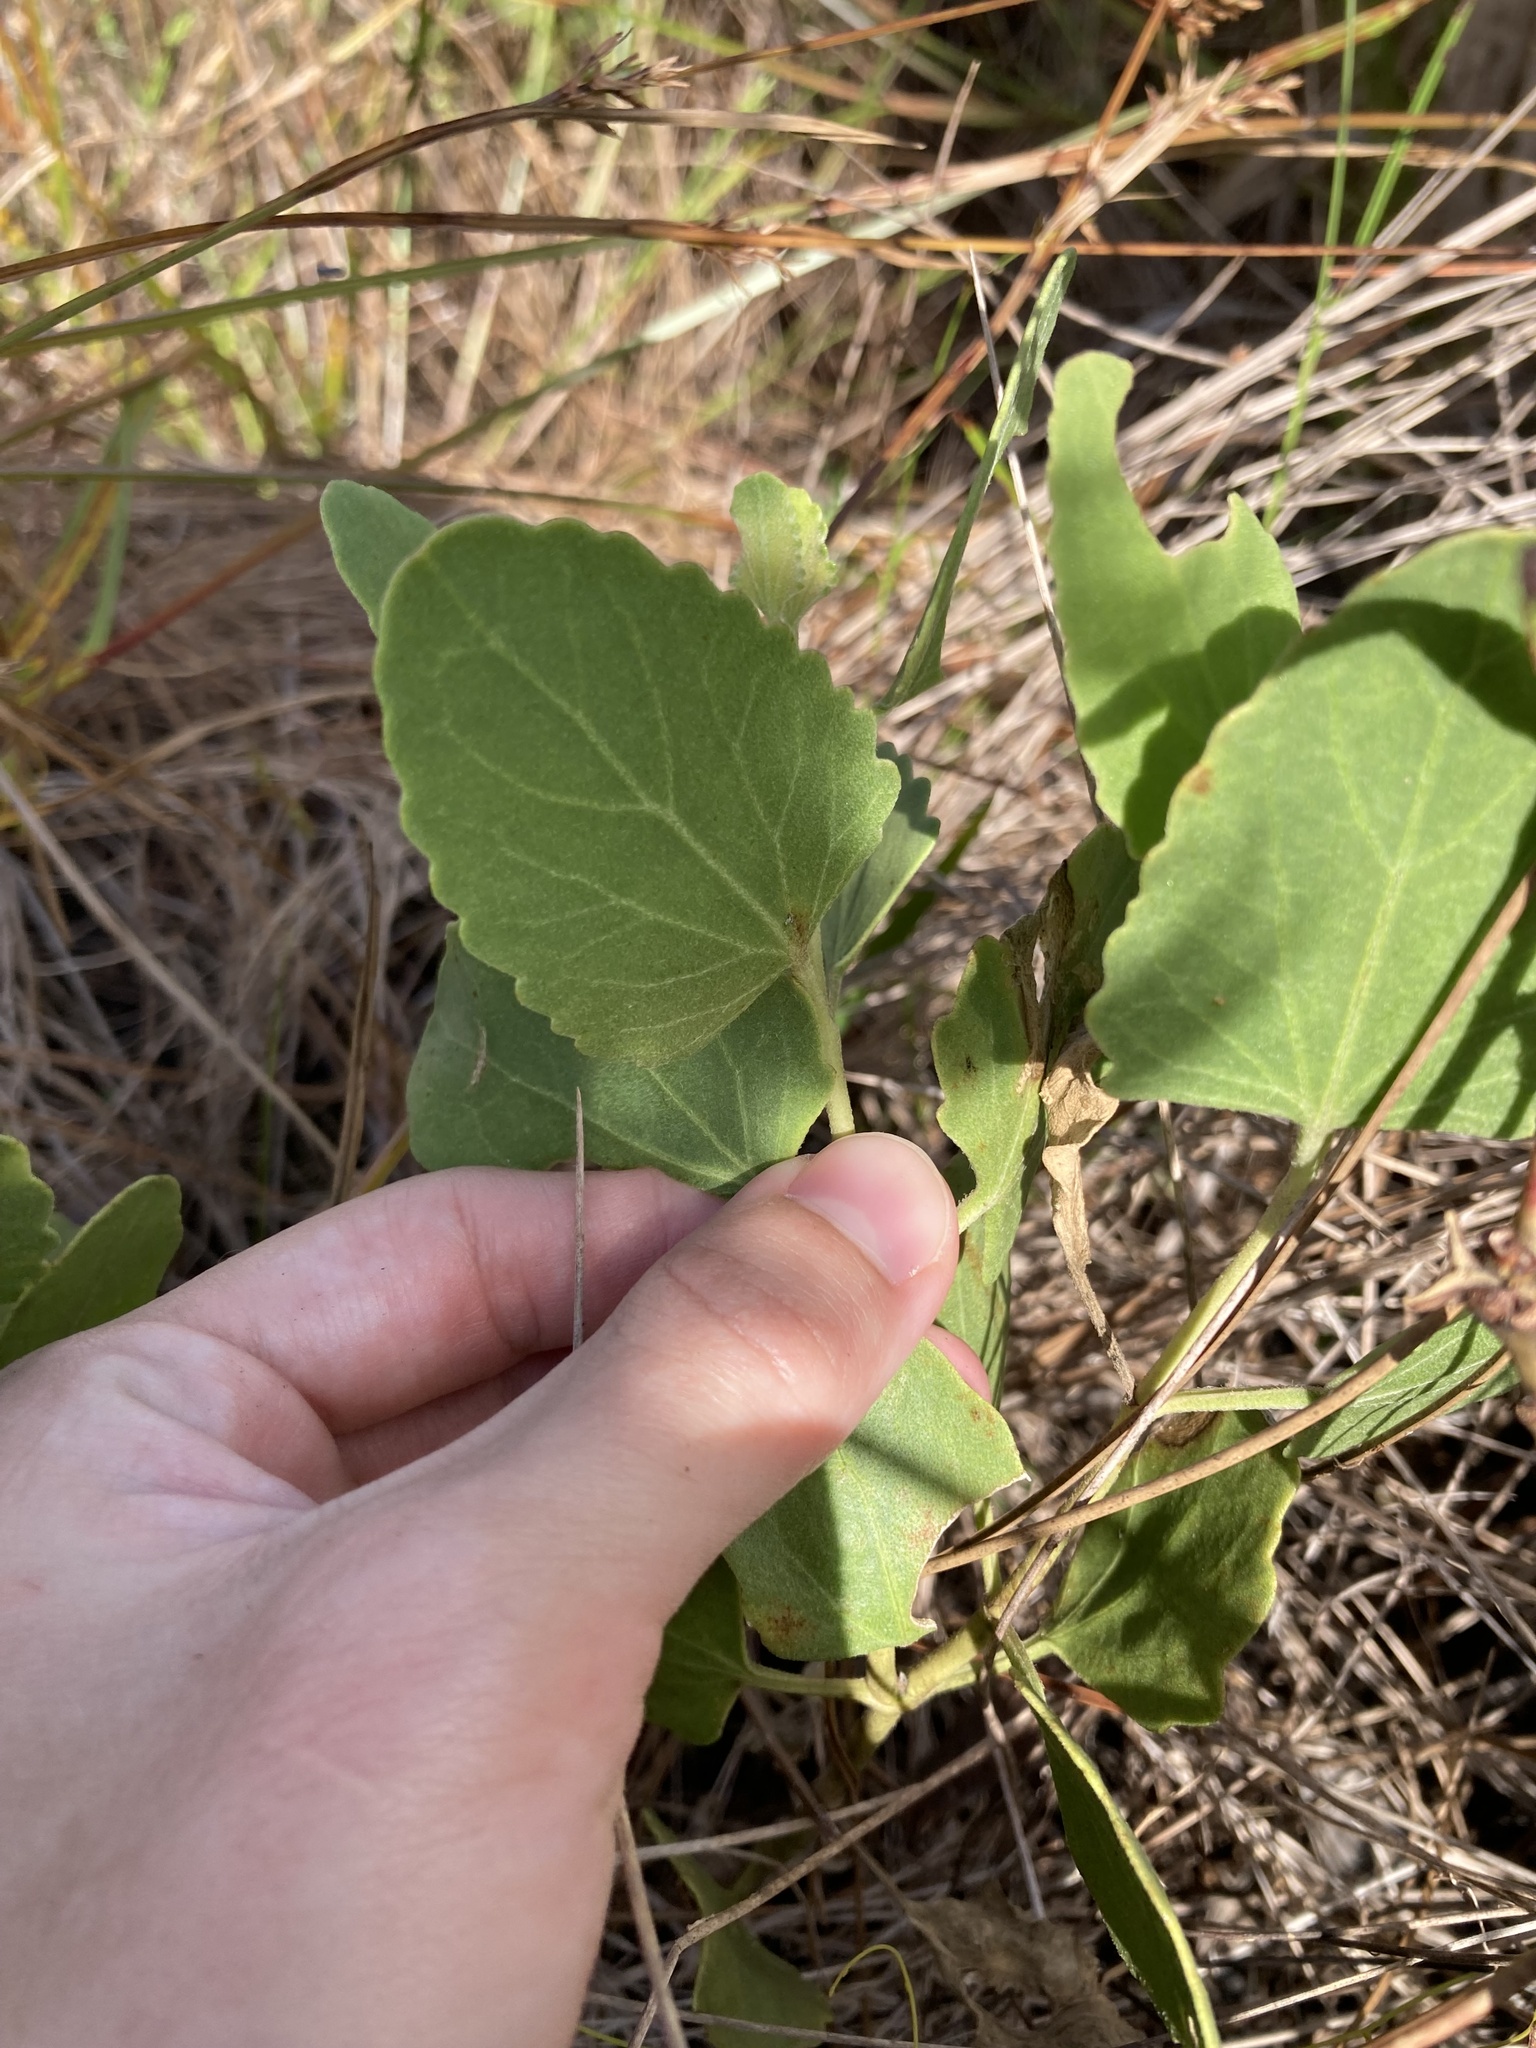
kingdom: Plantae
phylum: Tracheophyta
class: Magnoliopsida
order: Asterales
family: Asteraceae
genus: Eupatorium
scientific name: Eupatorium mikanioides
